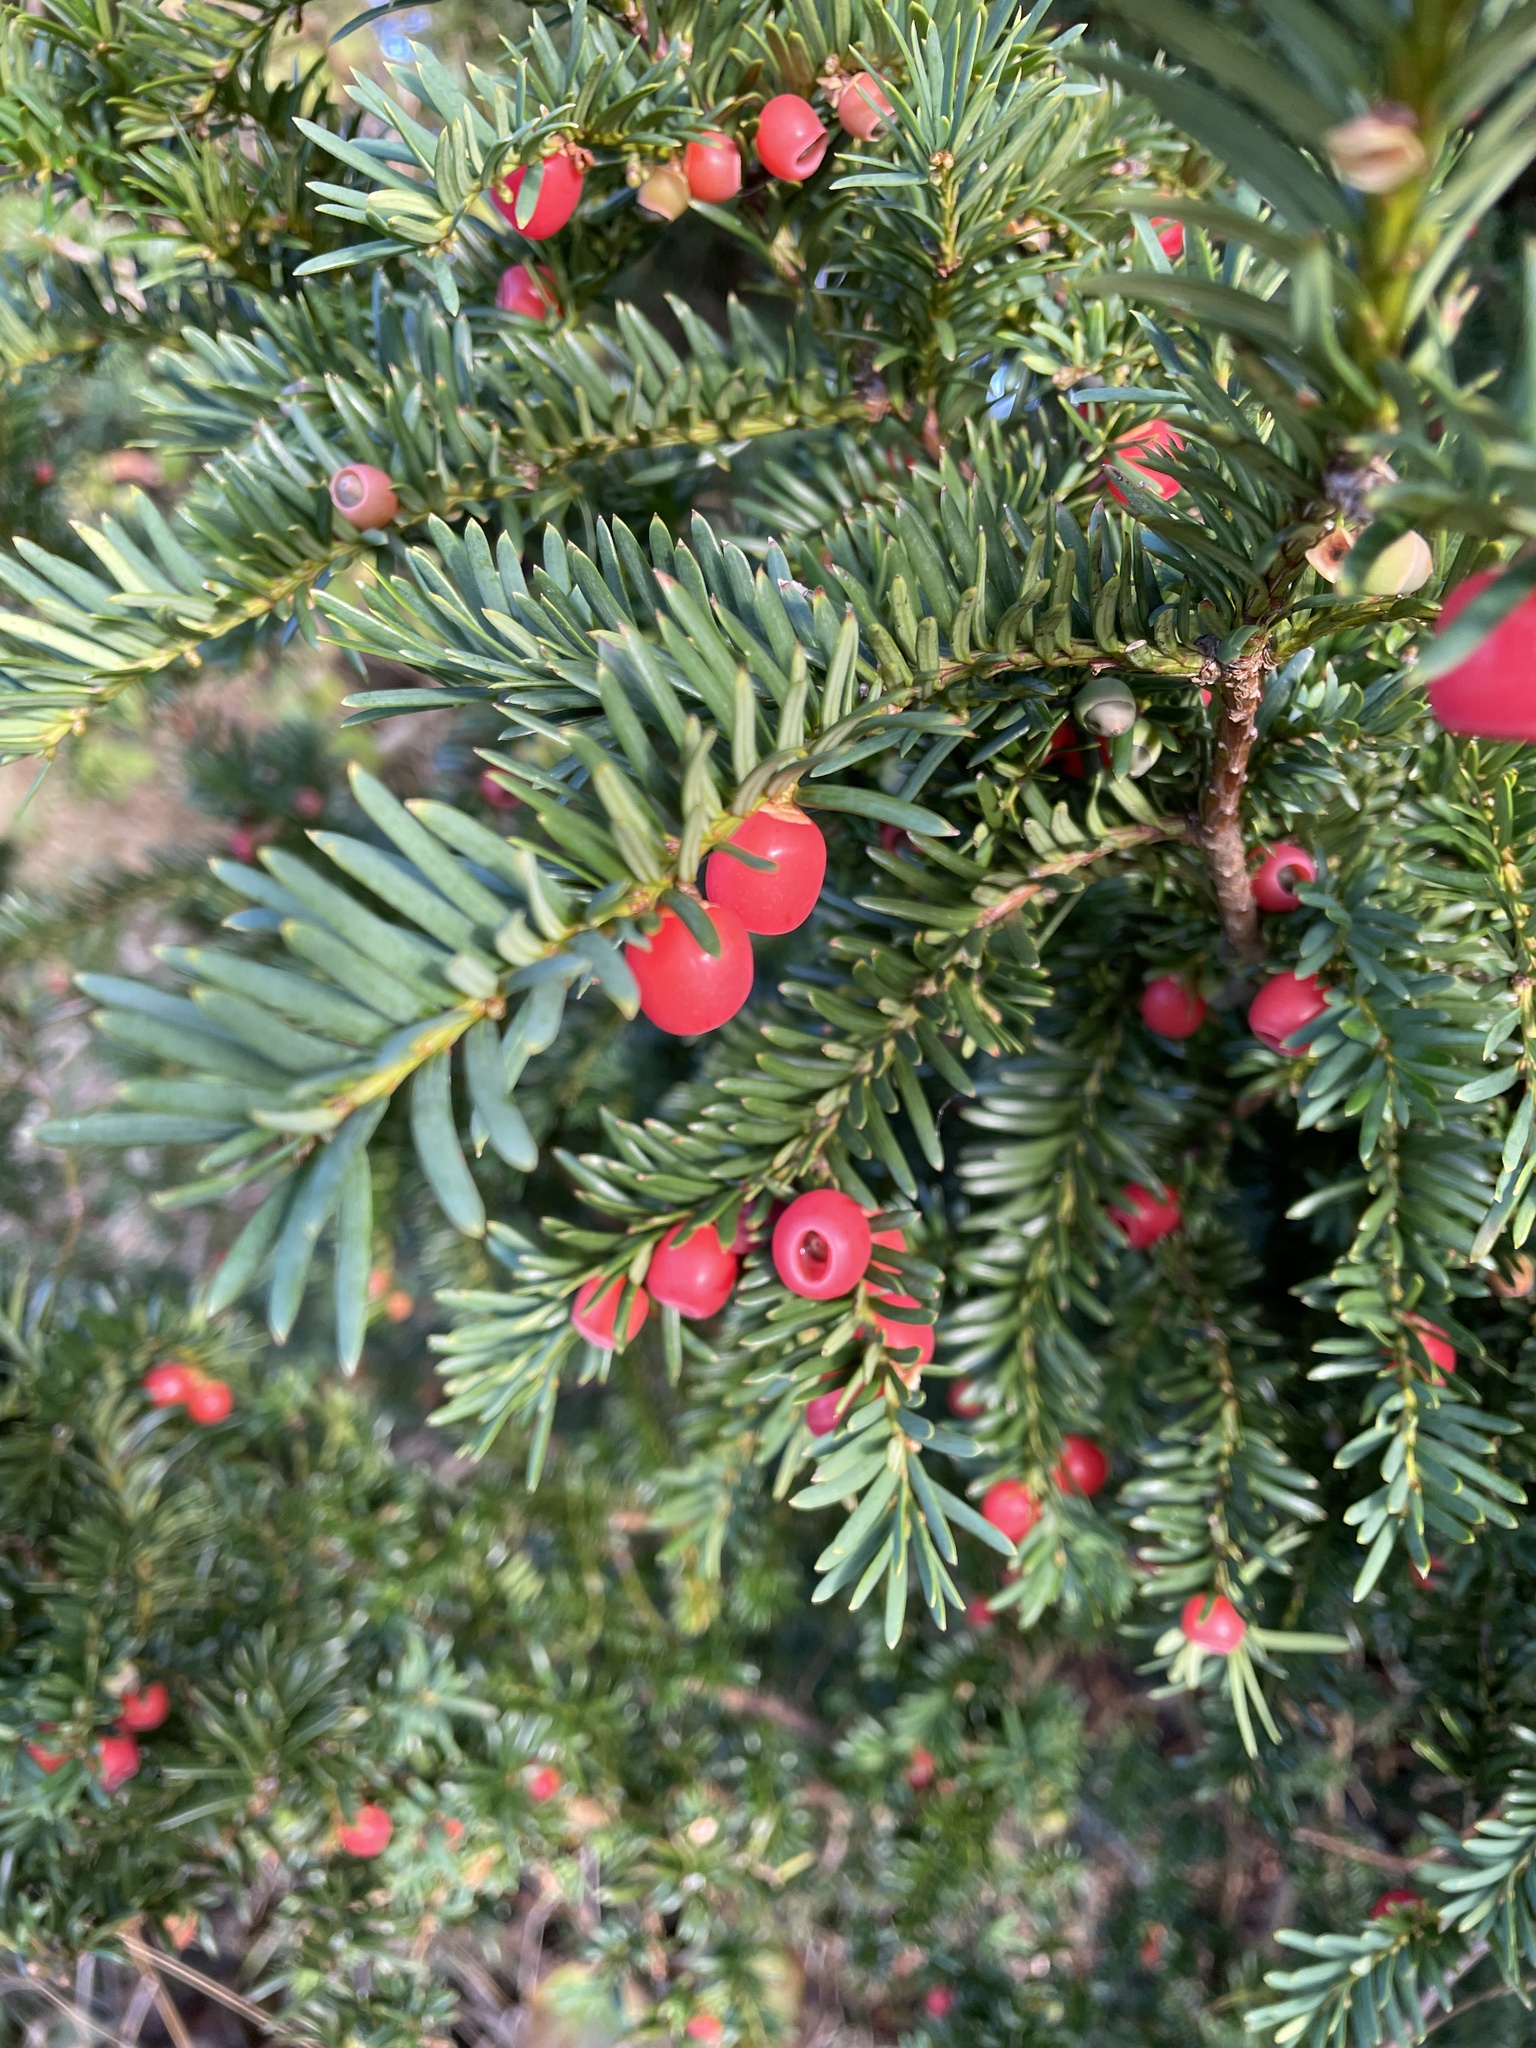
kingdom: Plantae
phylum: Tracheophyta
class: Pinopsida
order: Pinales
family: Taxaceae
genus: Taxus
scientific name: Taxus baccata
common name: Yew
